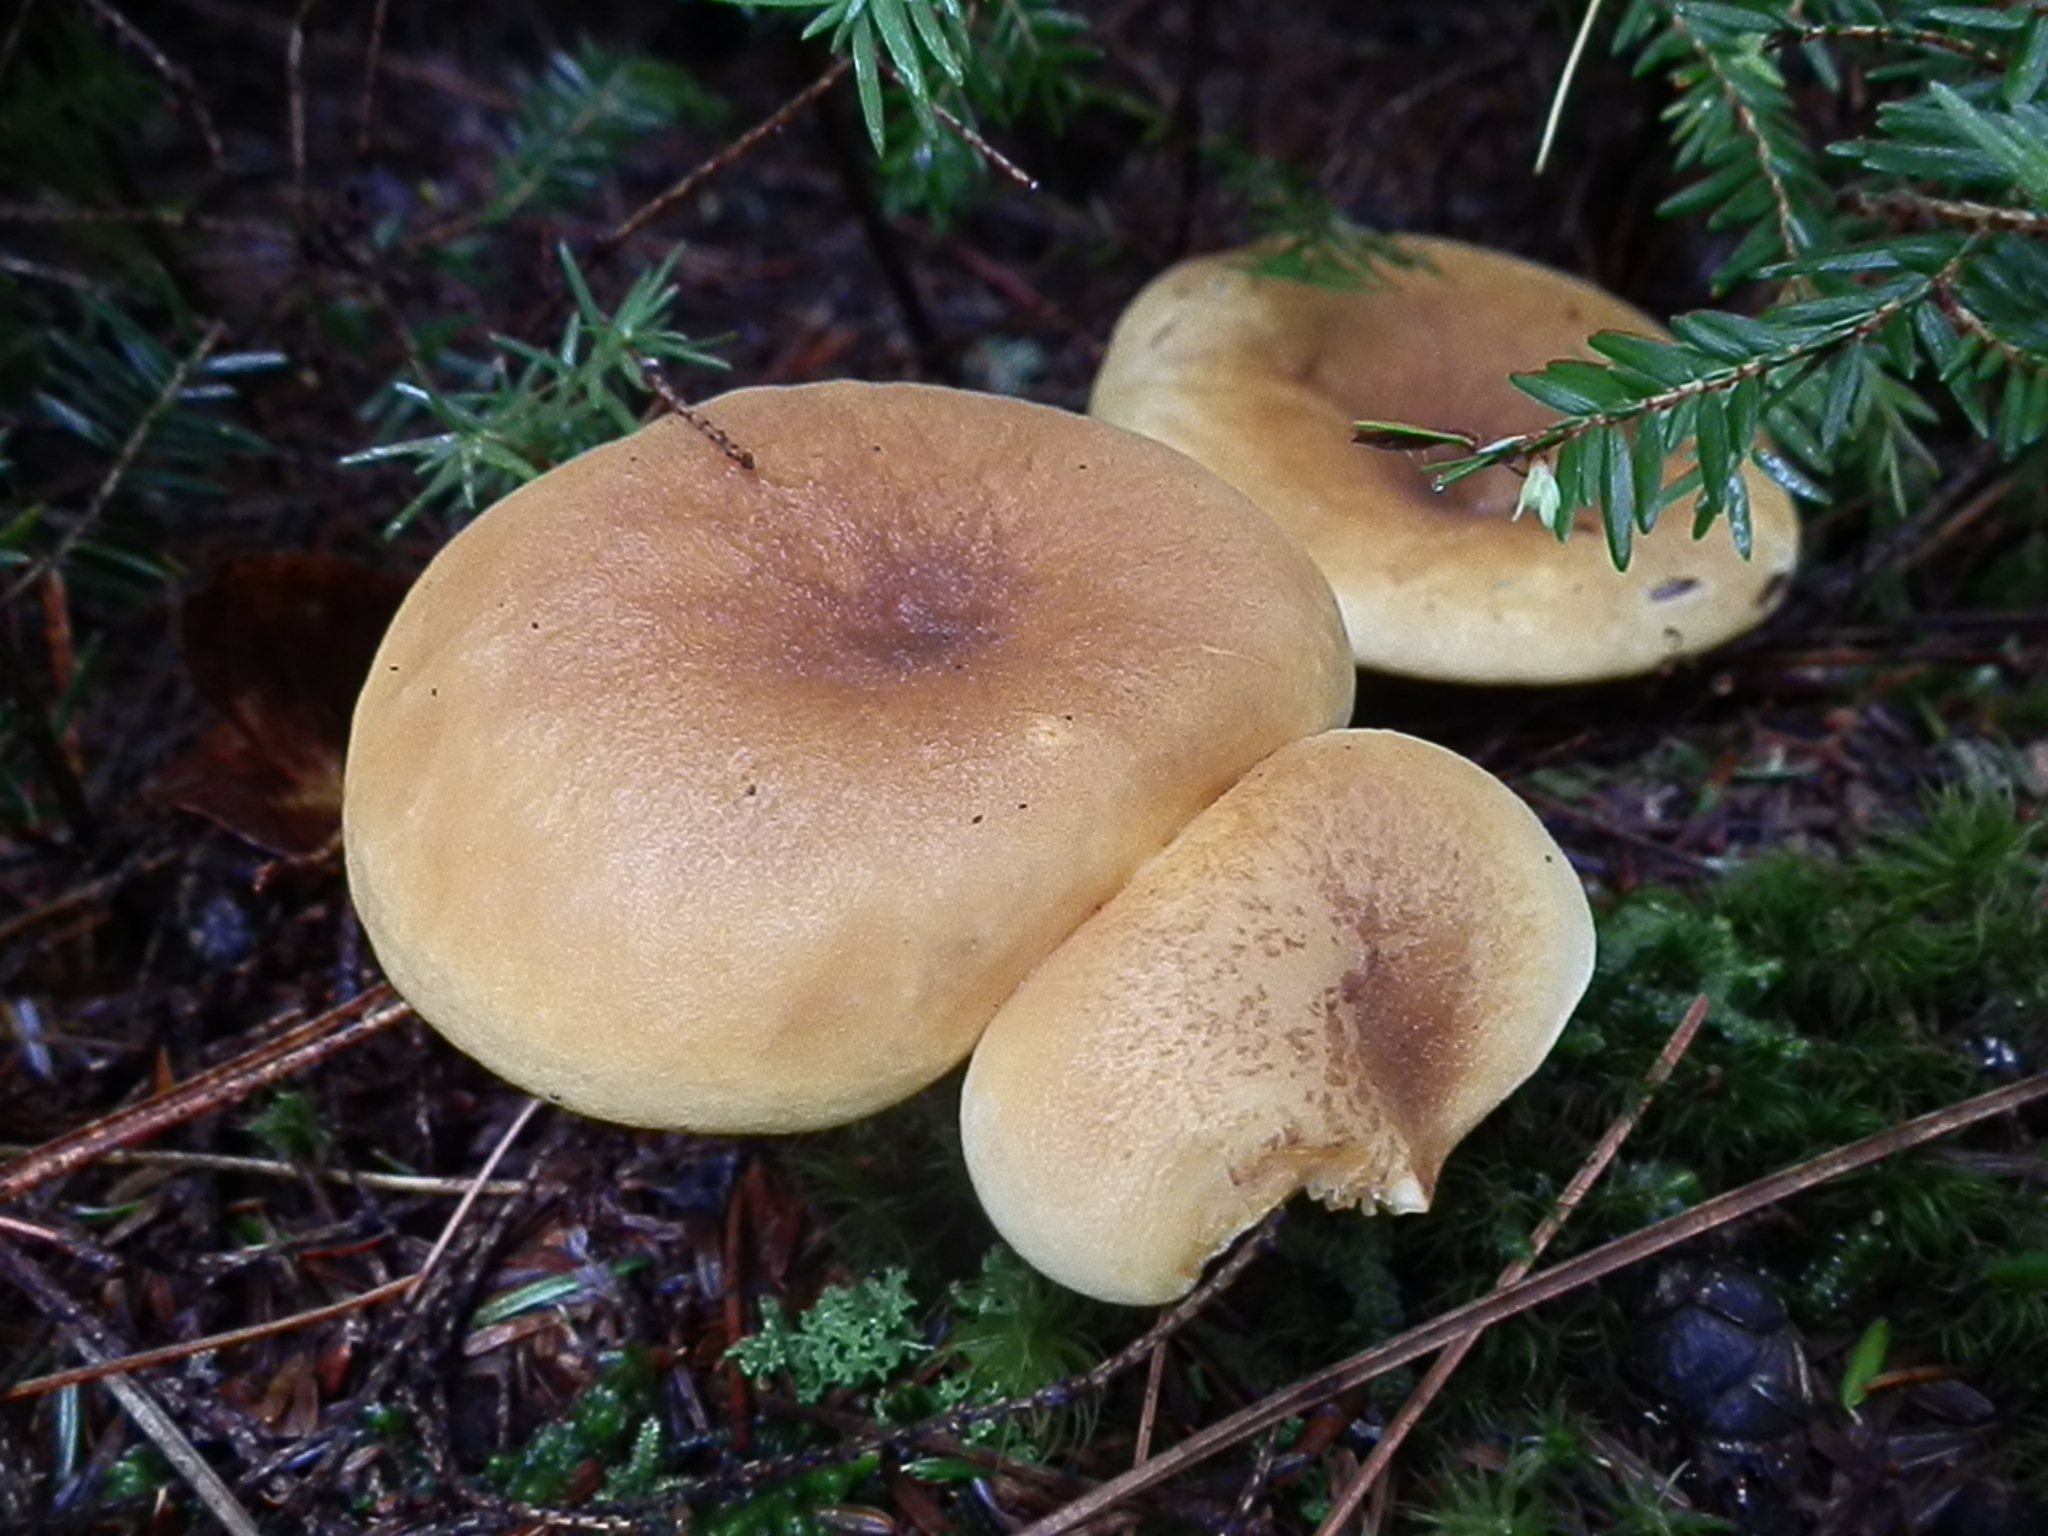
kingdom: Fungi
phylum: Basidiomycota
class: Agaricomycetes
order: Boletales
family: Tapinellaceae
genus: Tapinella
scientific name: Tapinella atrotomentosa
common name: Velvet rollrim
